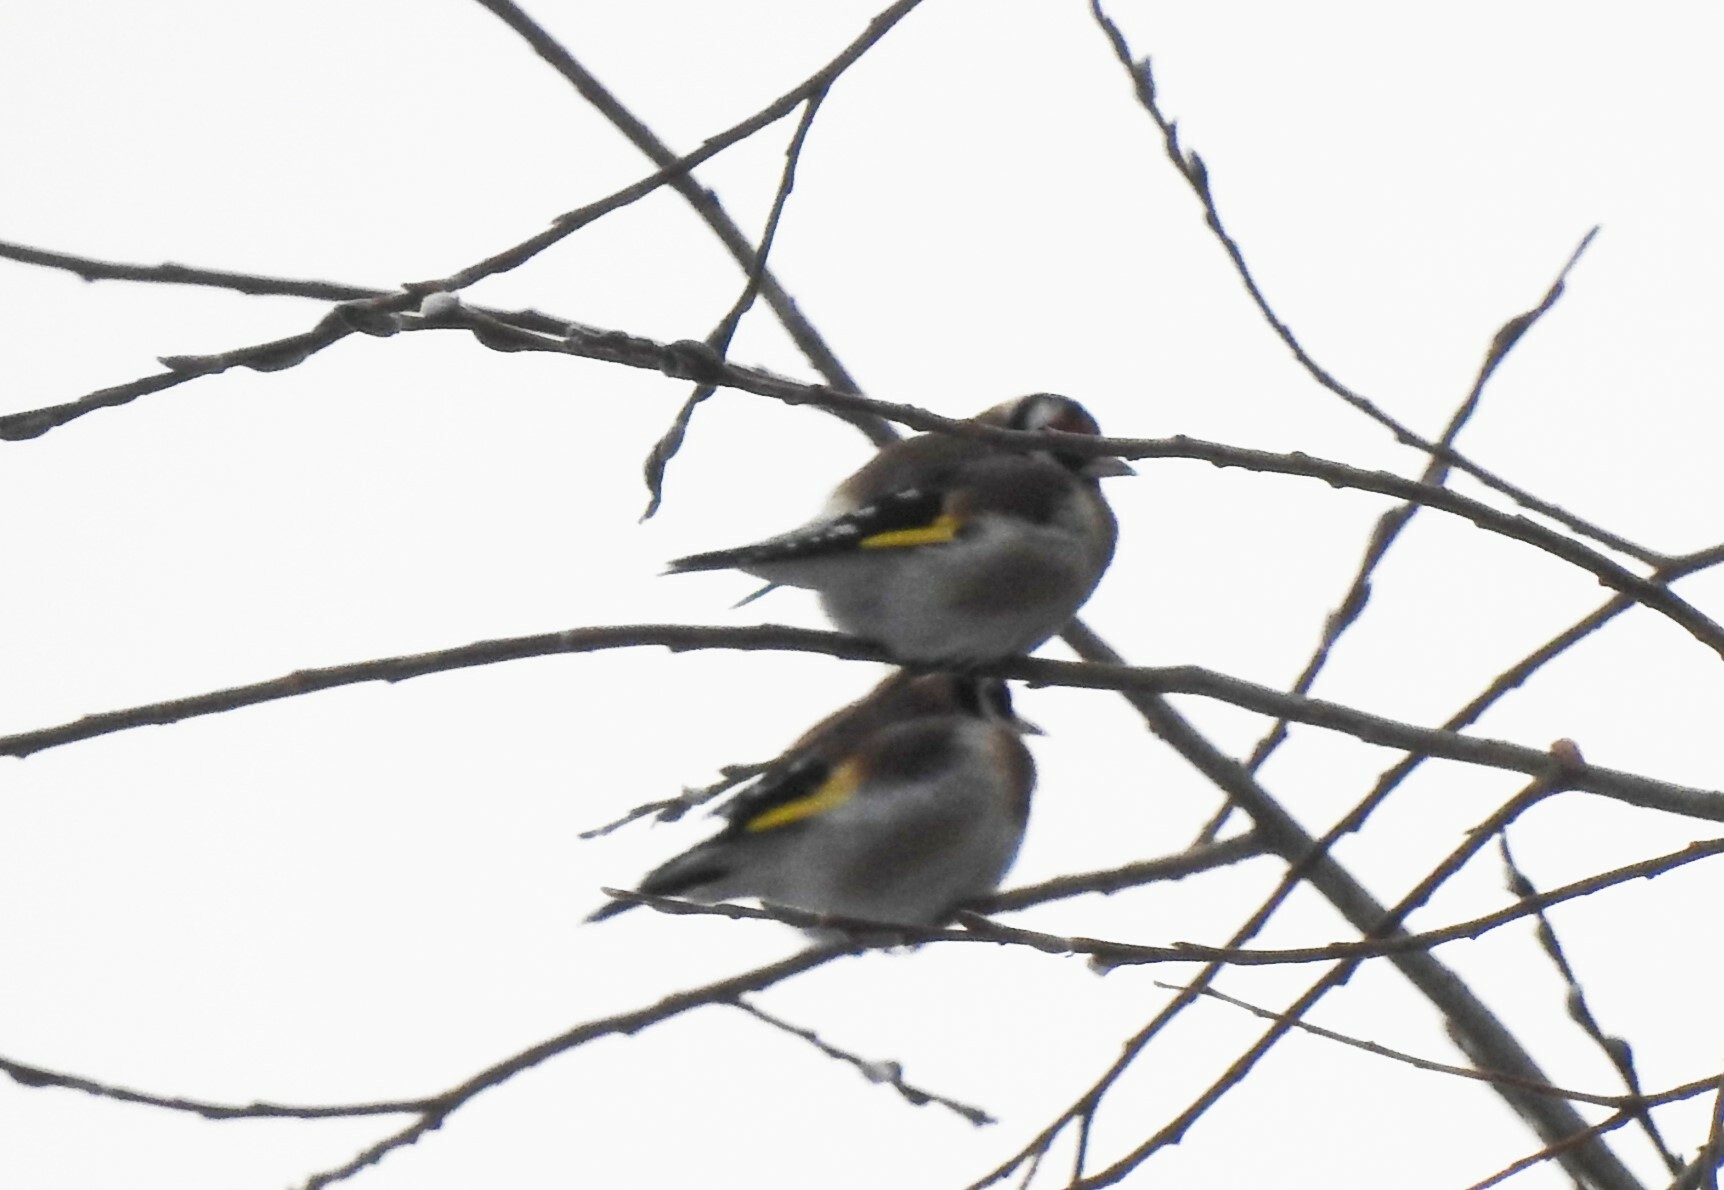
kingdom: Animalia
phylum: Chordata
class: Aves
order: Passeriformes
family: Fringillidae
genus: Carduelis
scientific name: Carduelis carduelis
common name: European goldfinch
